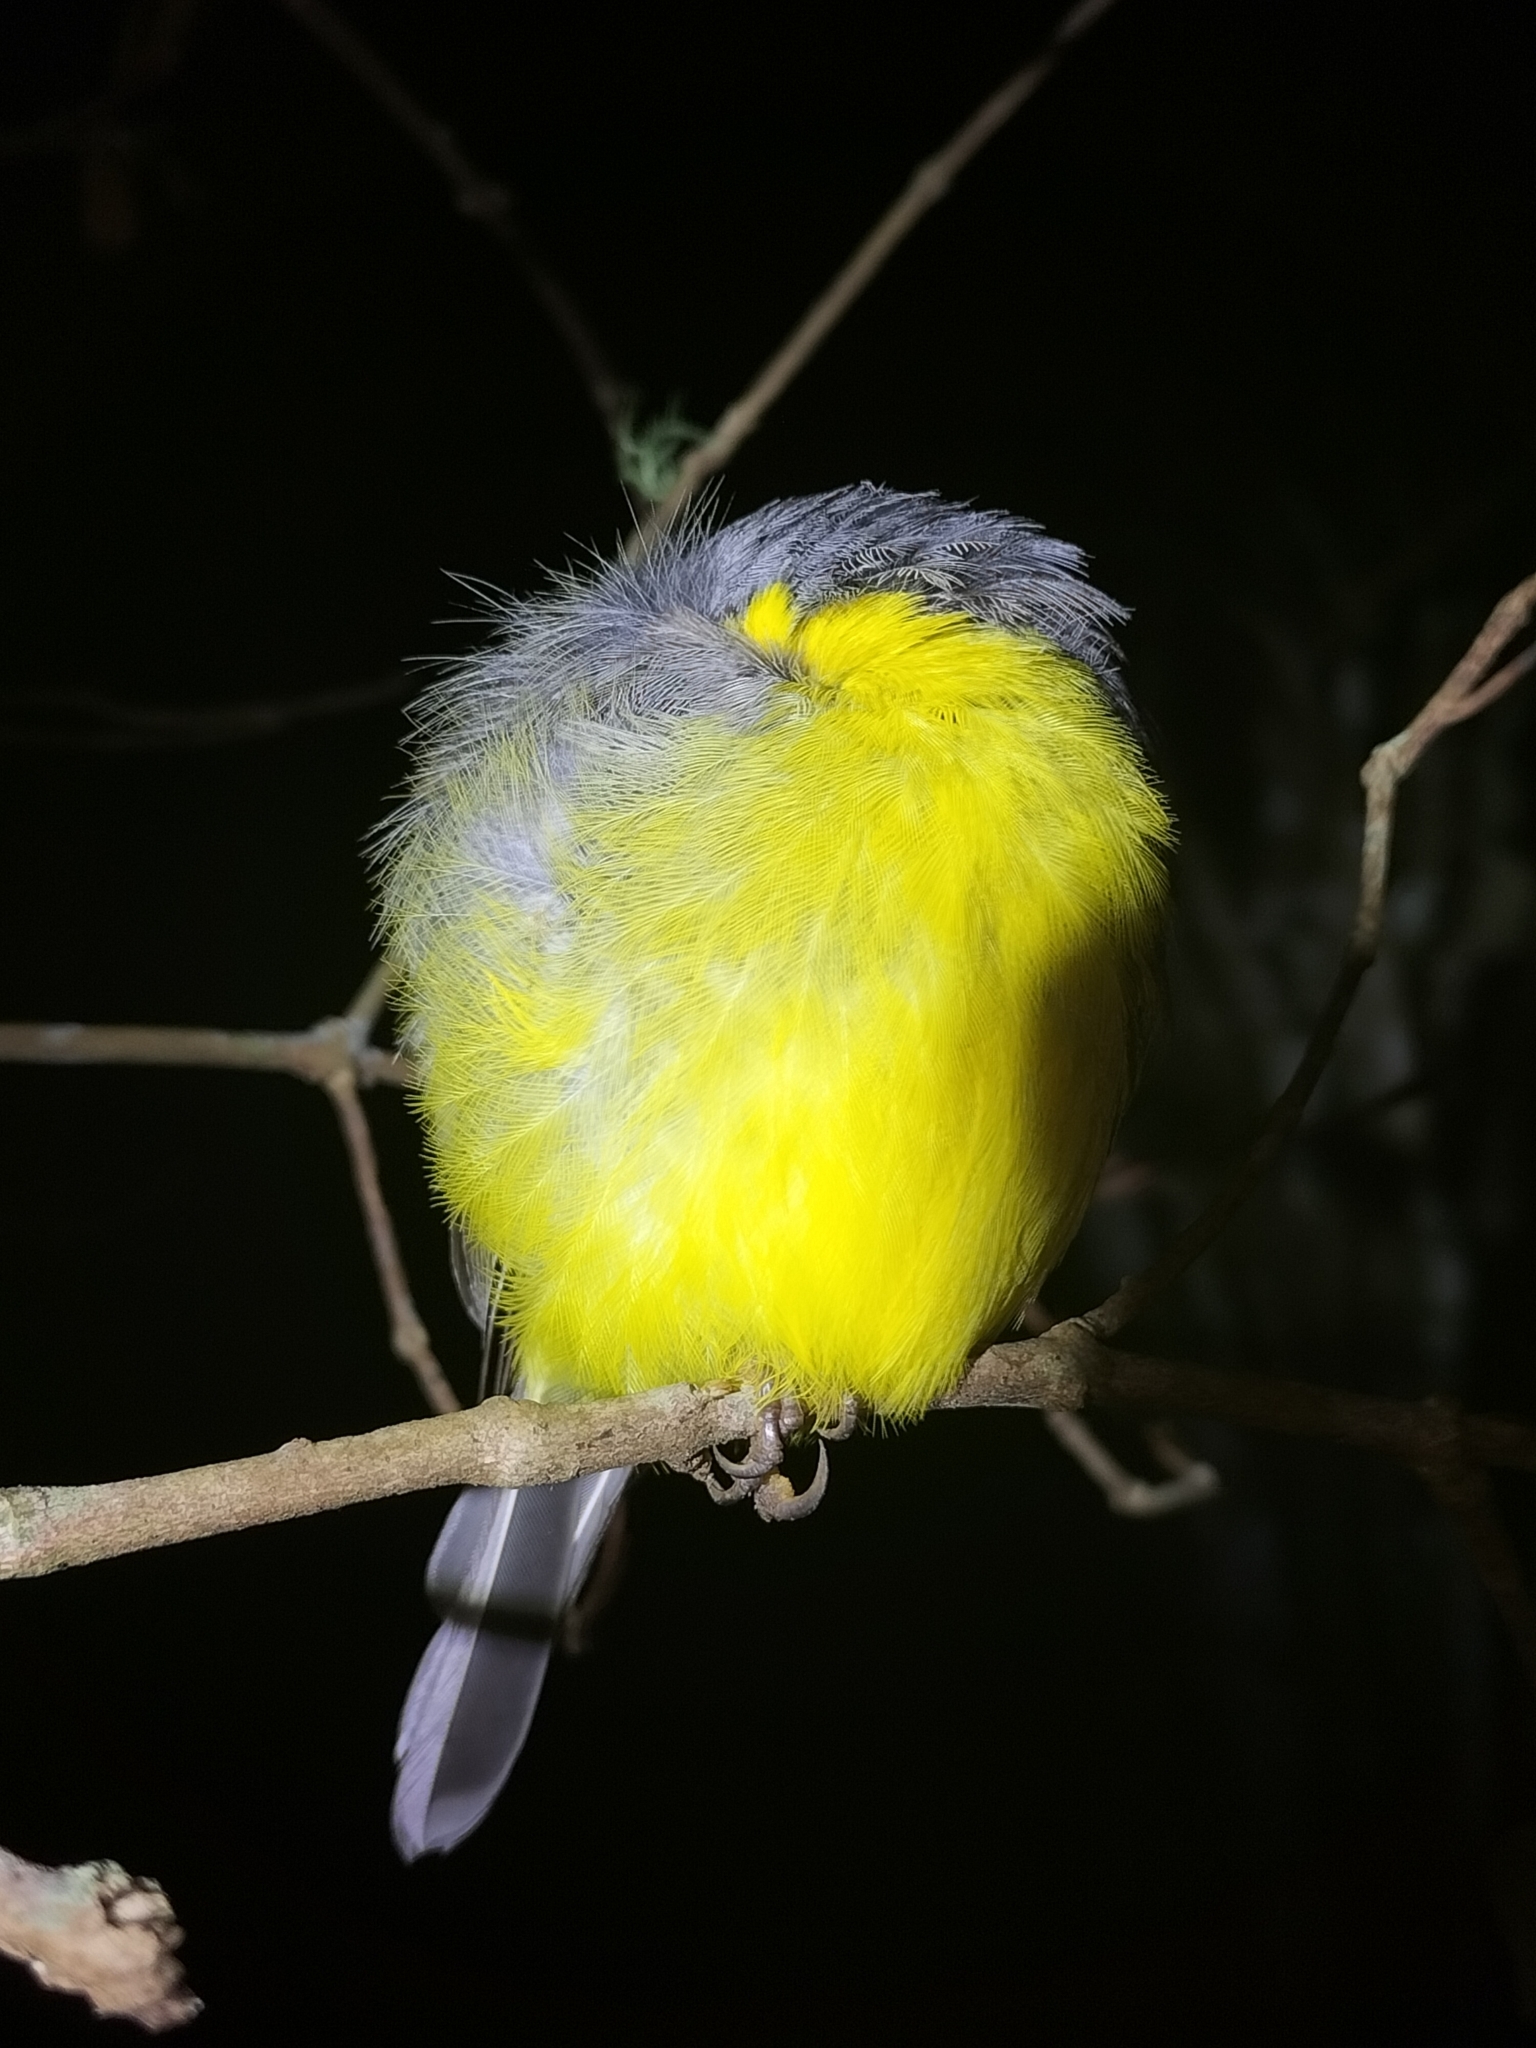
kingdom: Animalia
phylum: Chordata
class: Aves
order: Passeriformes
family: Petroicidae
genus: Eopsaltria
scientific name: Eopsaltria australis
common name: Eastern yellow robin
